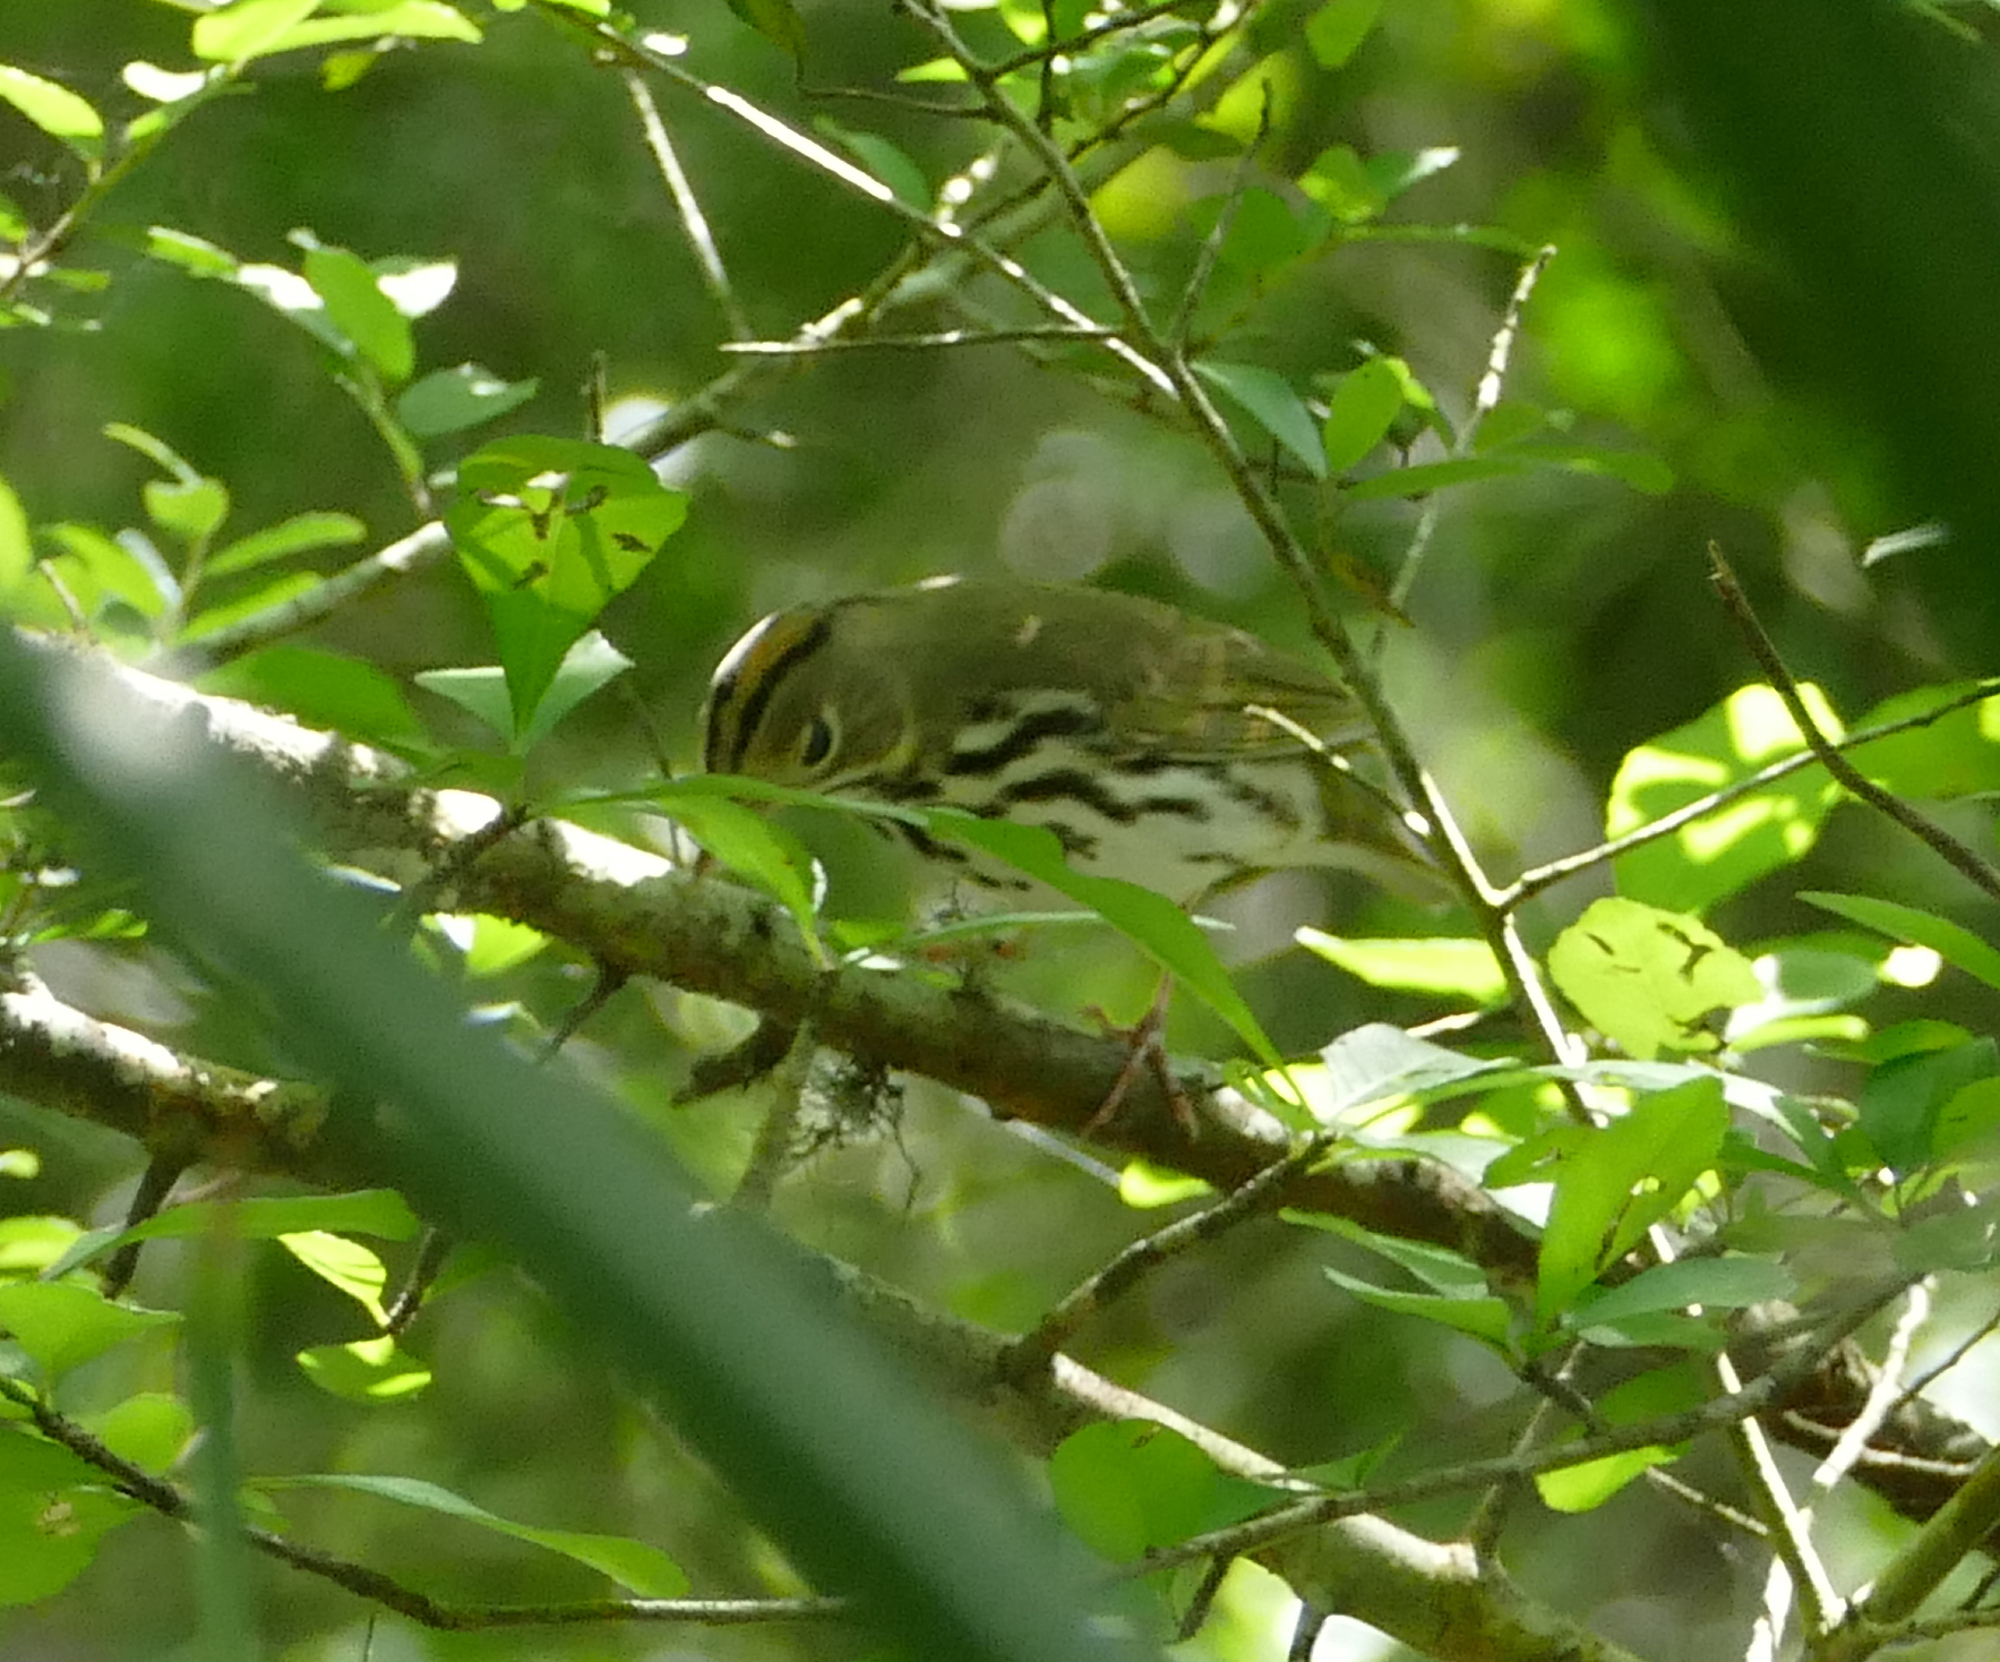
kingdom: Animalia
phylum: Chordata
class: Aves
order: Passeriformes
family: Parulidae
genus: Seiurus
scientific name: Seiurus aurocapilla
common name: Ovenbird
